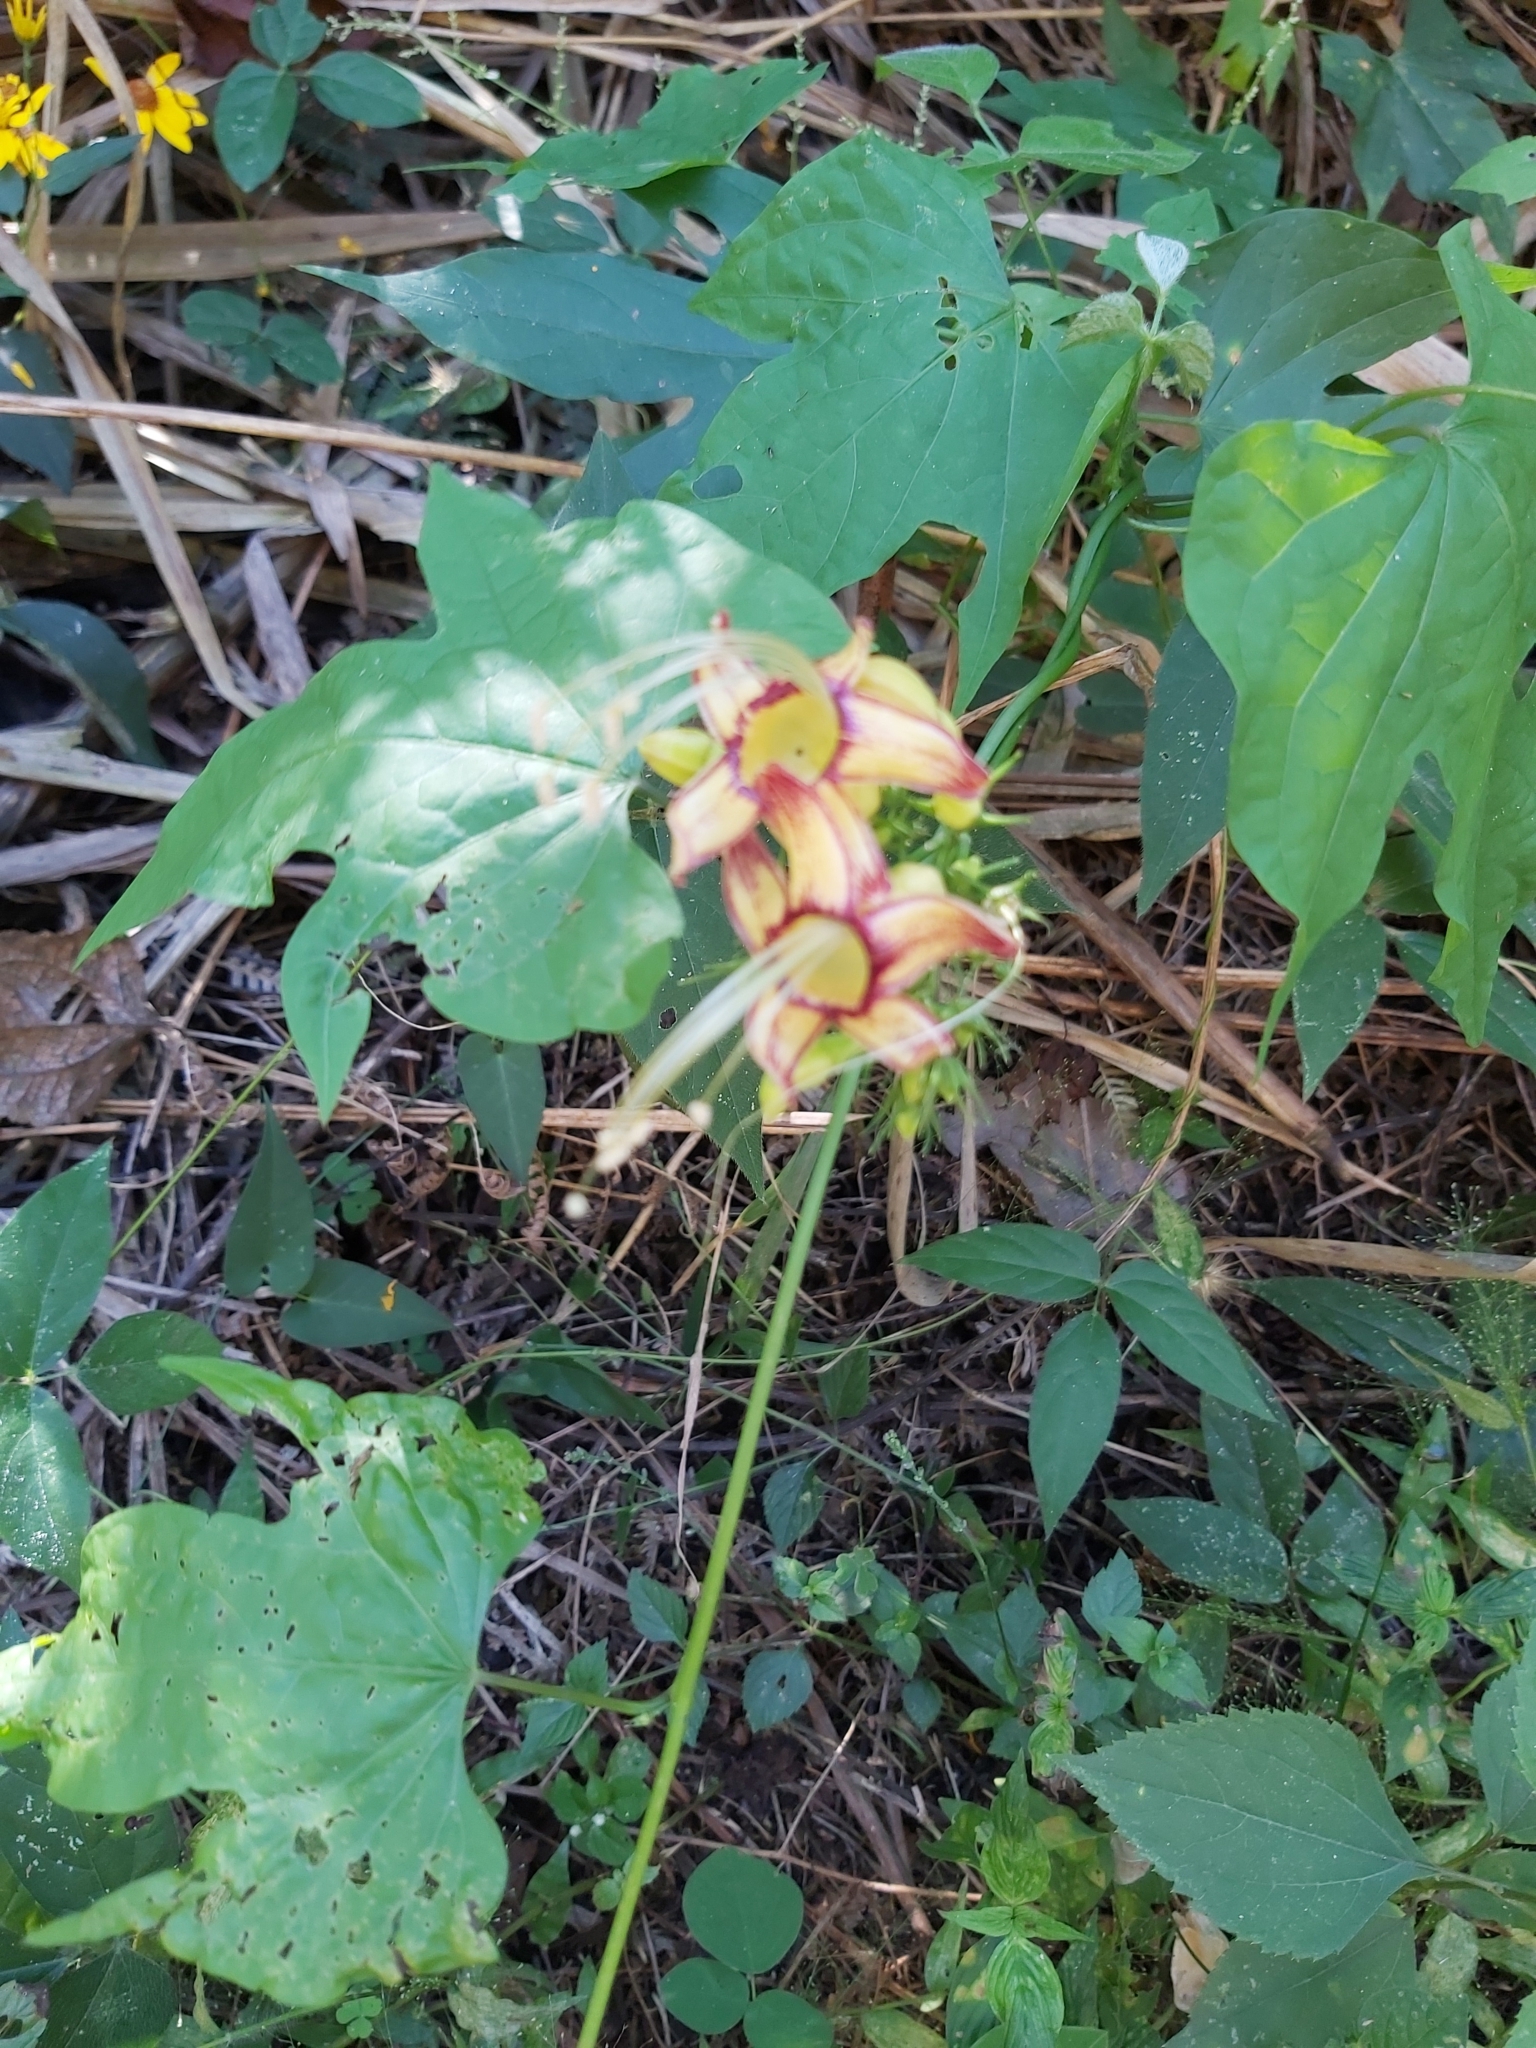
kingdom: Plantae
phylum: Tracheophyta
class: Magnoliopsida
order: Solanales
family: Convolvulaceae
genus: Ipomoea
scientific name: Ipomoea neei
